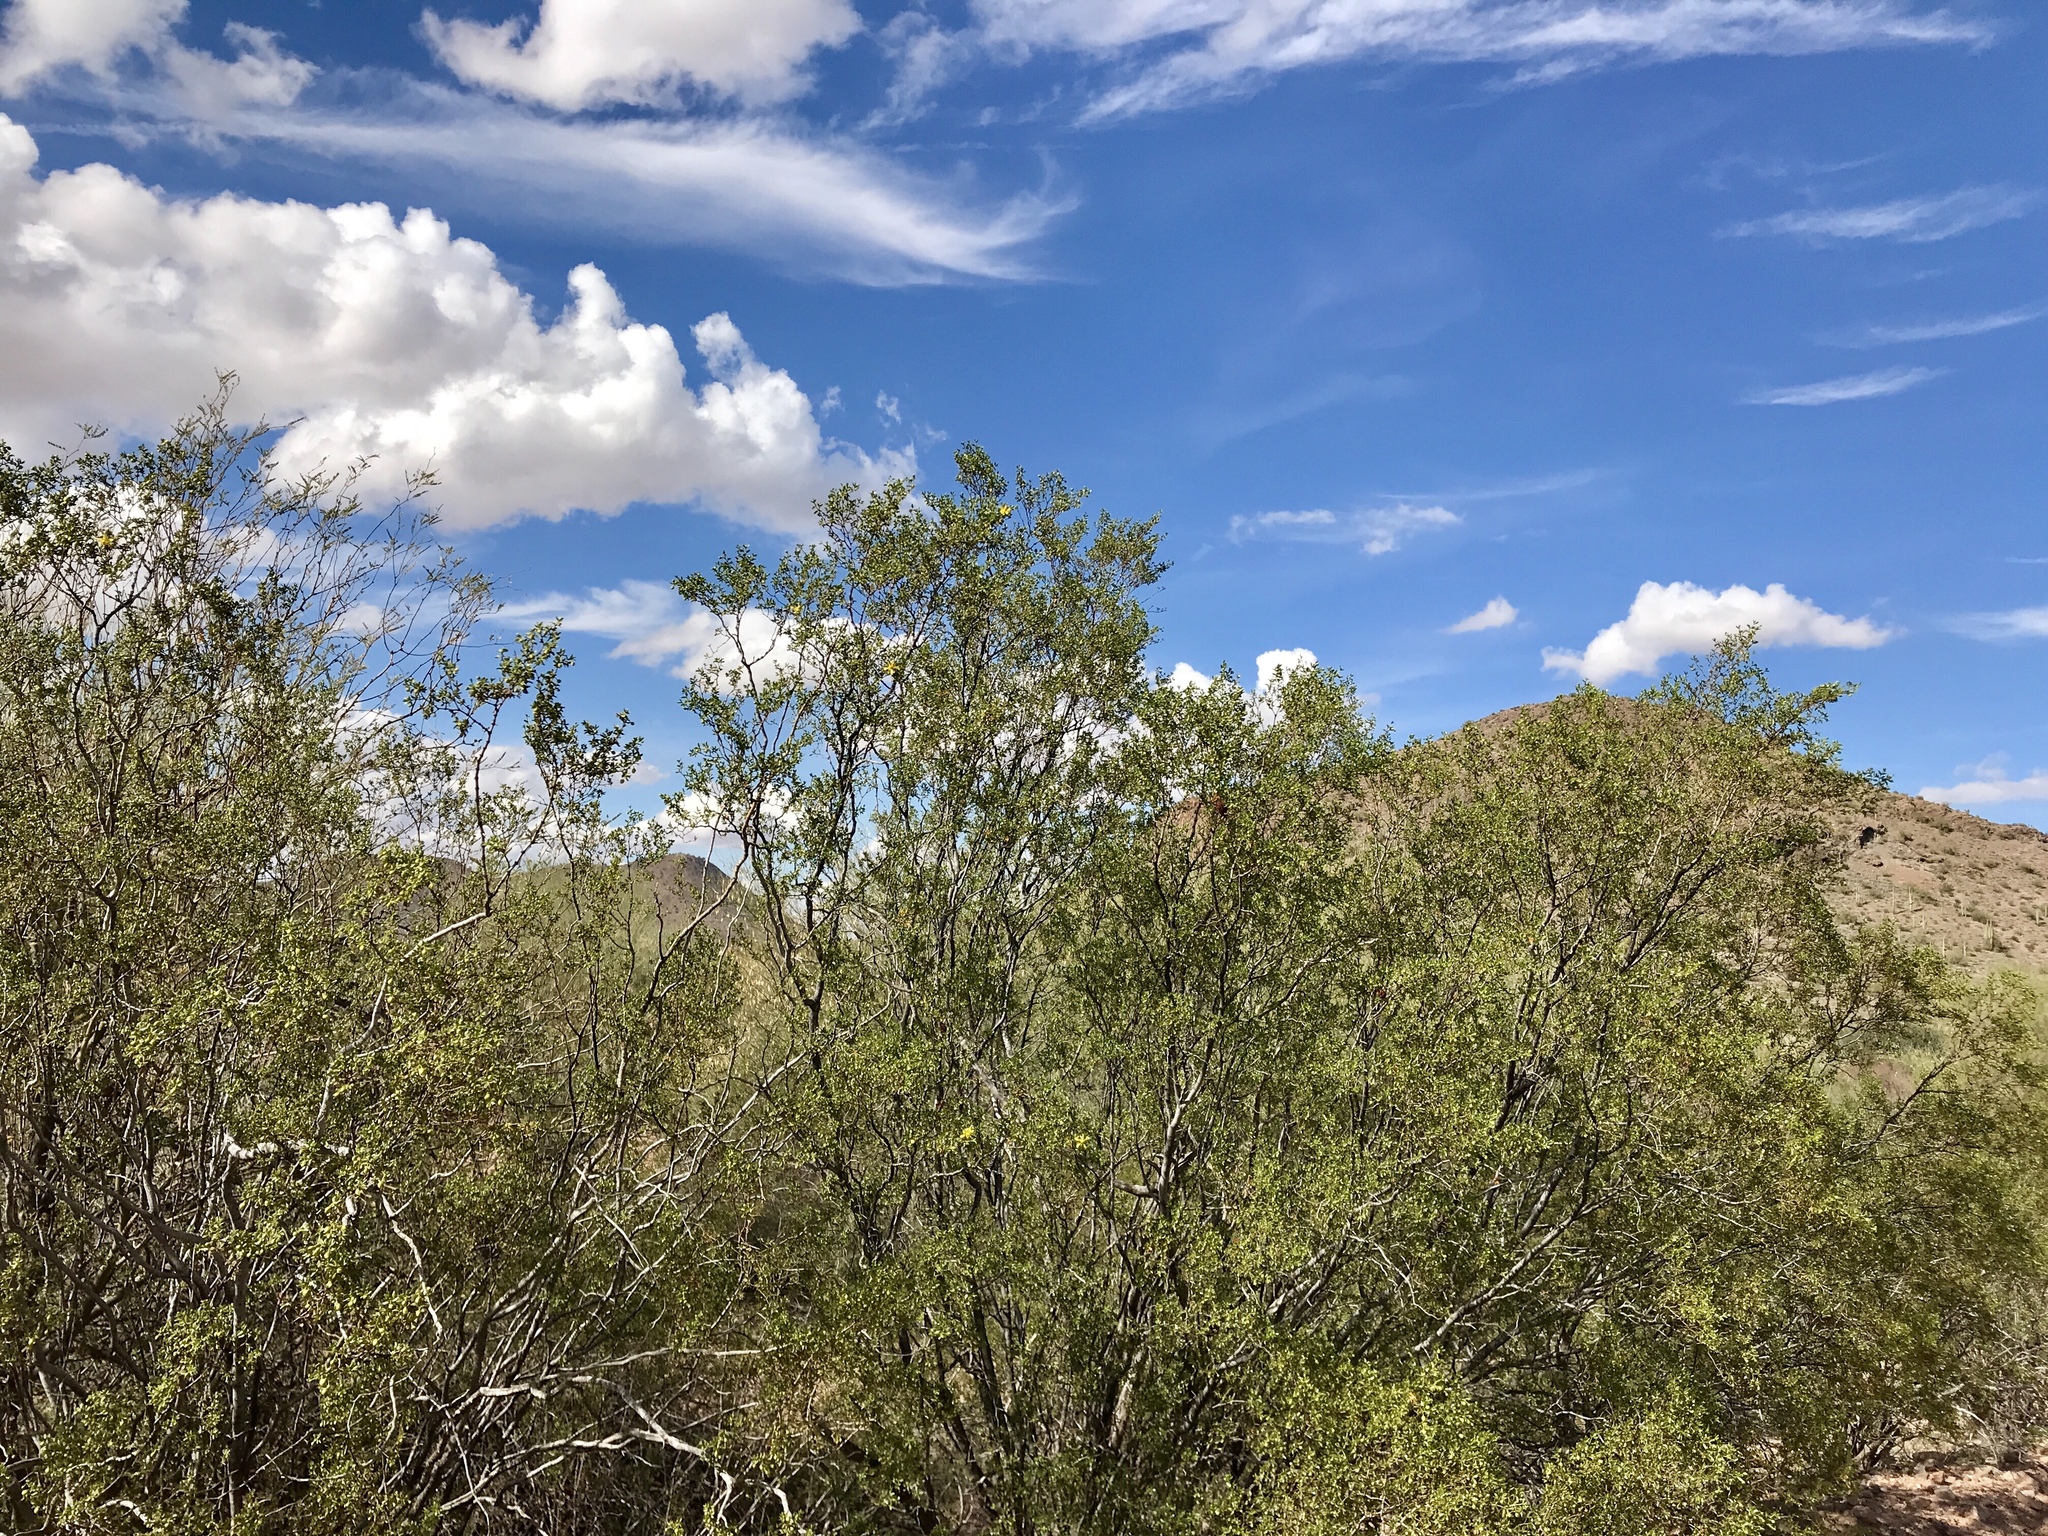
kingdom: Plantae
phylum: Tracheophyta
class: Magnoliopsida
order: Zygophyllales
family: Zygophyllaceae
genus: Larrea
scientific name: Larrea tridentata
